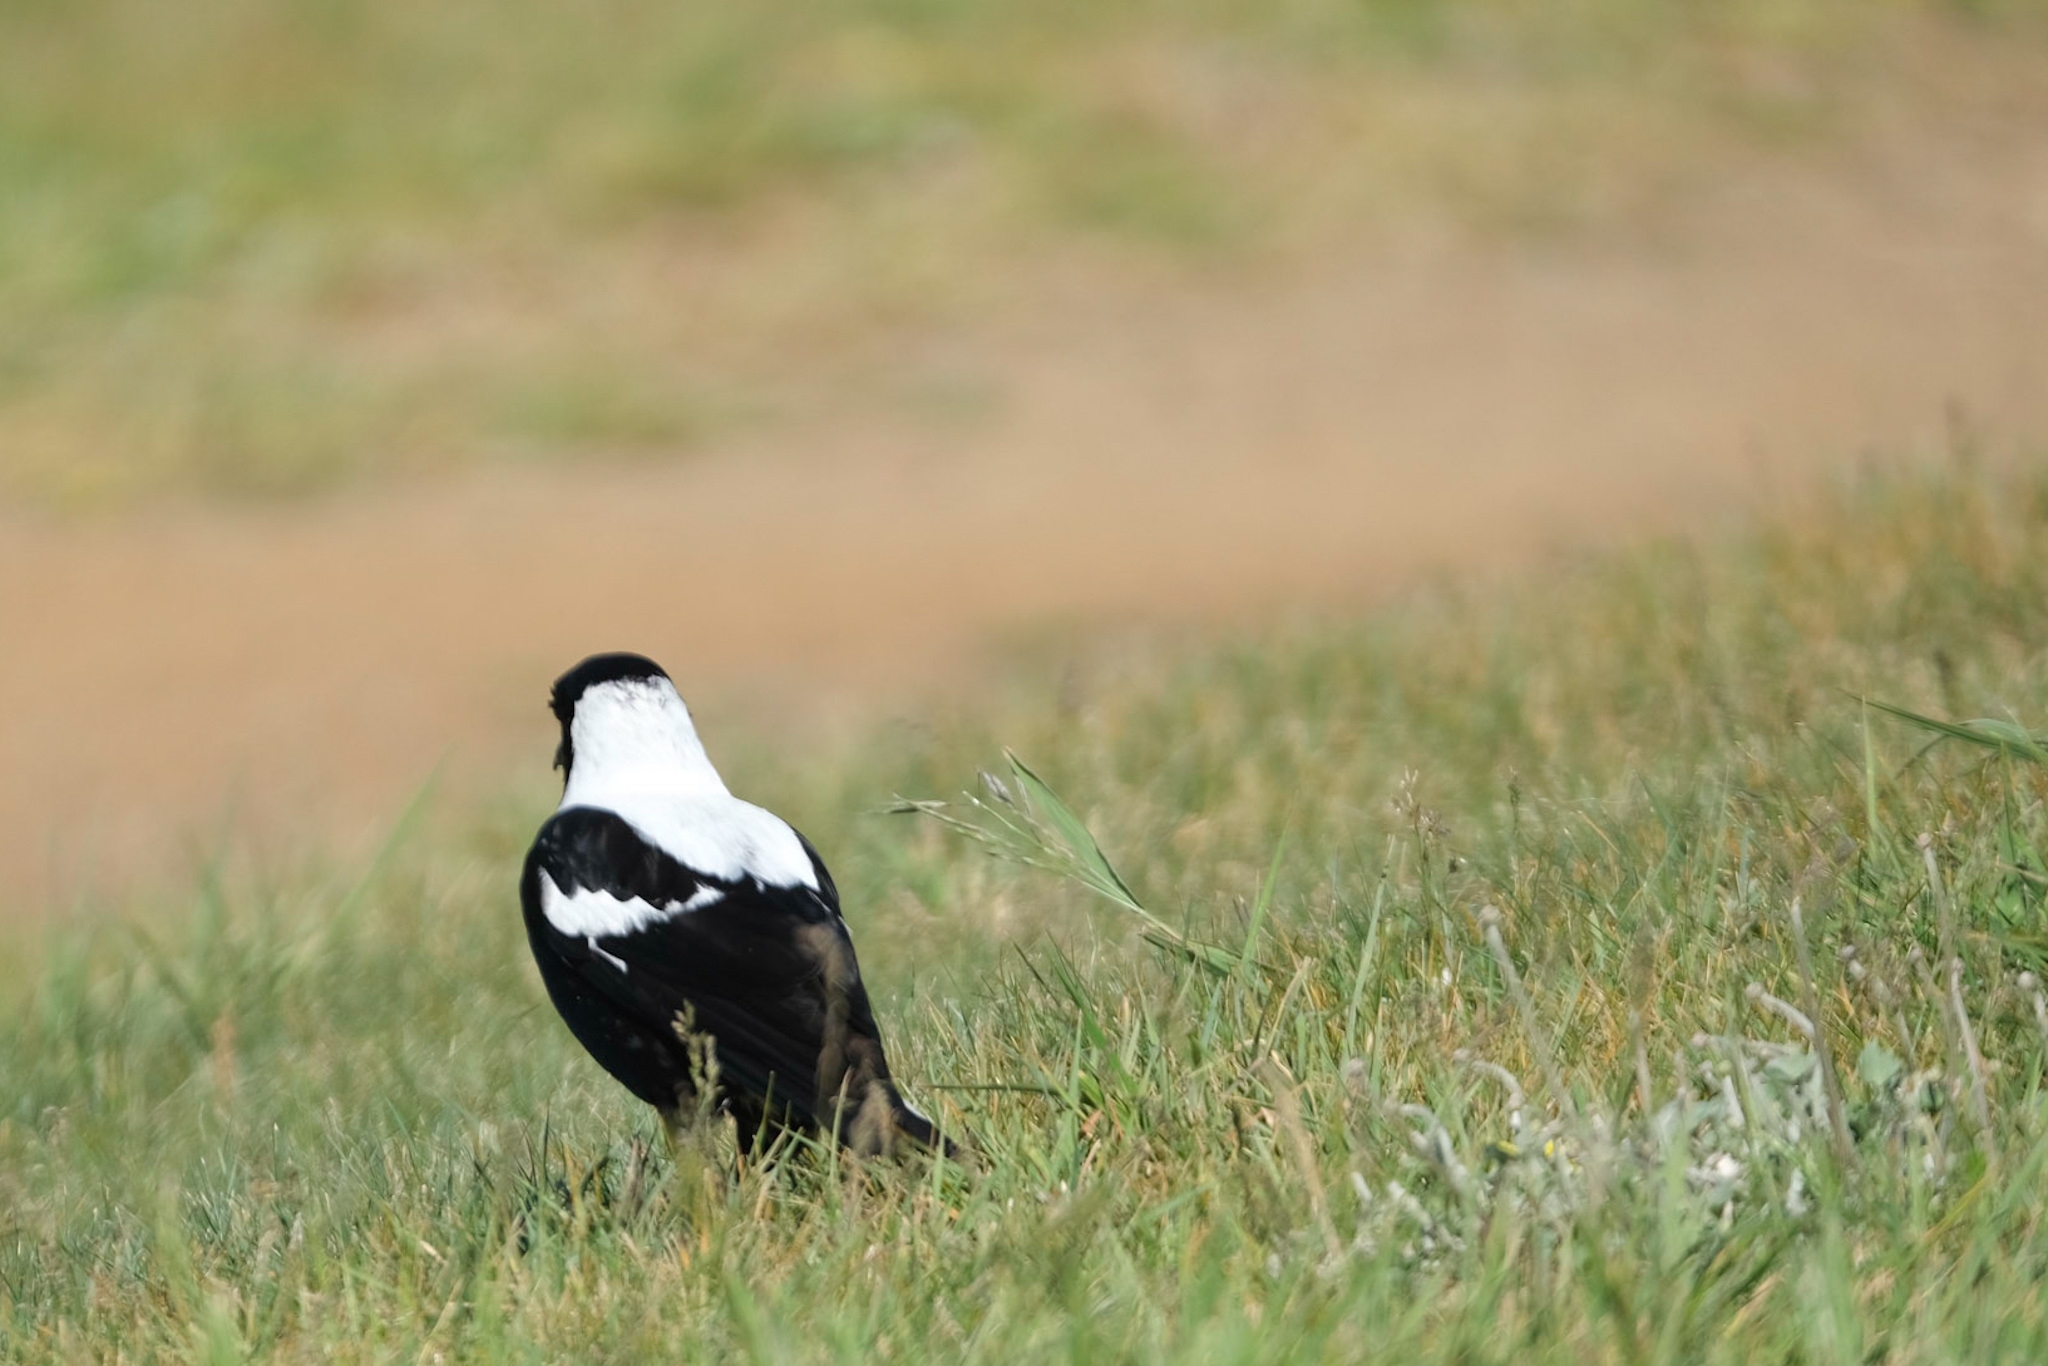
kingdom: Animalia
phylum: Chordata
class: Aves
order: Passeriformes
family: Cracticidae
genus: Gymnorhina
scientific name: Gymnorhina tibicen
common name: Australian magpie
